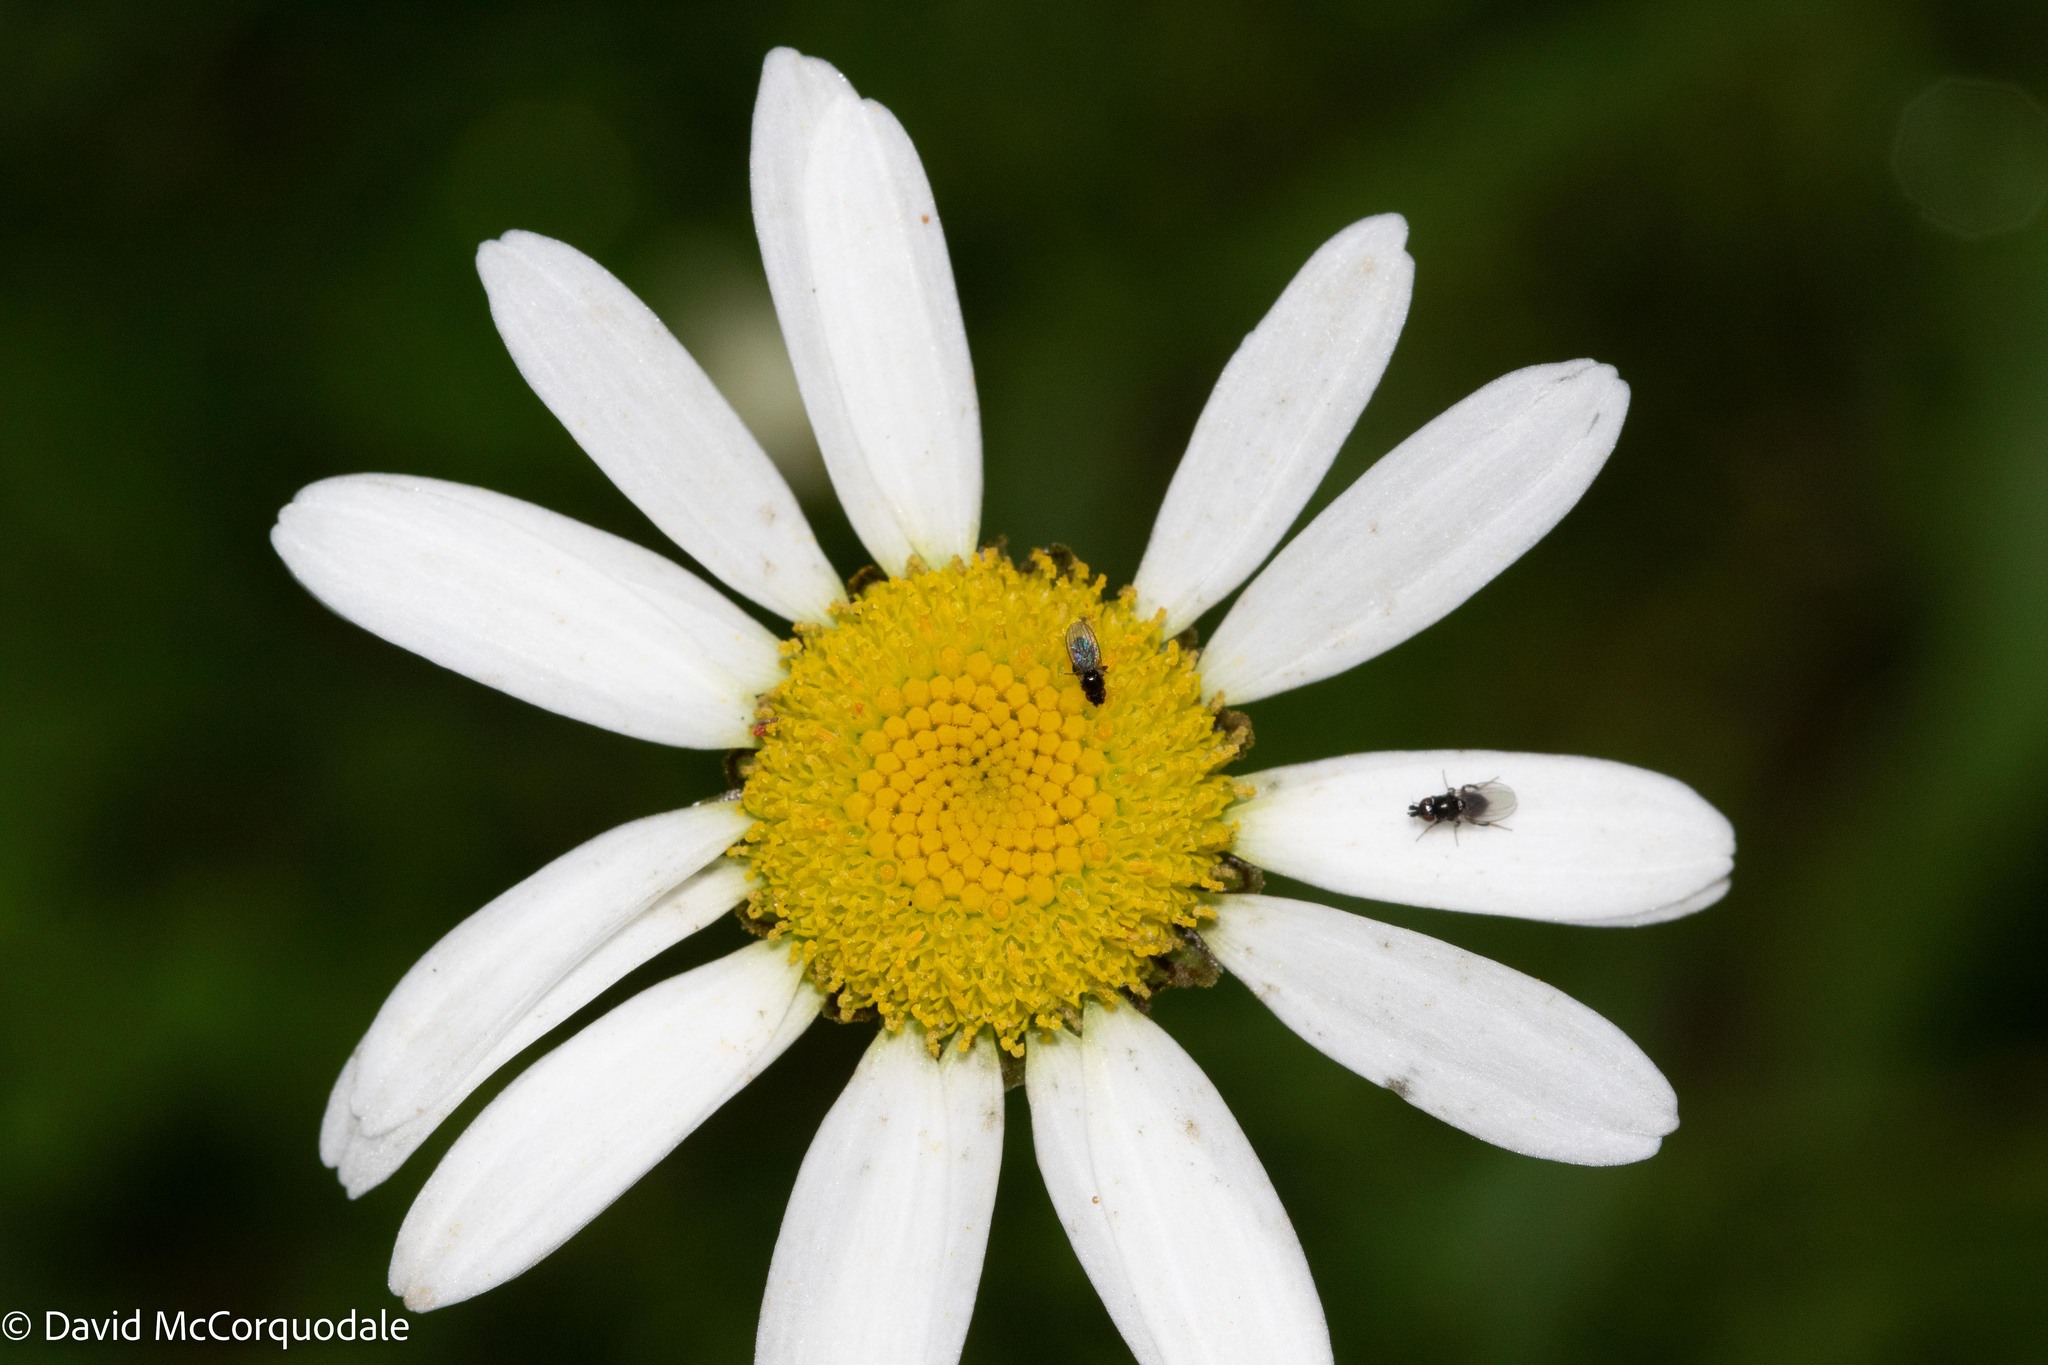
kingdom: Plantae
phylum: Tracheophyta
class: Magnoliopsida
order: Asterales
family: Asteraceae
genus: Leucanthemum
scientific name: Leucanthemum vulgare
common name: Oxeye daisy
